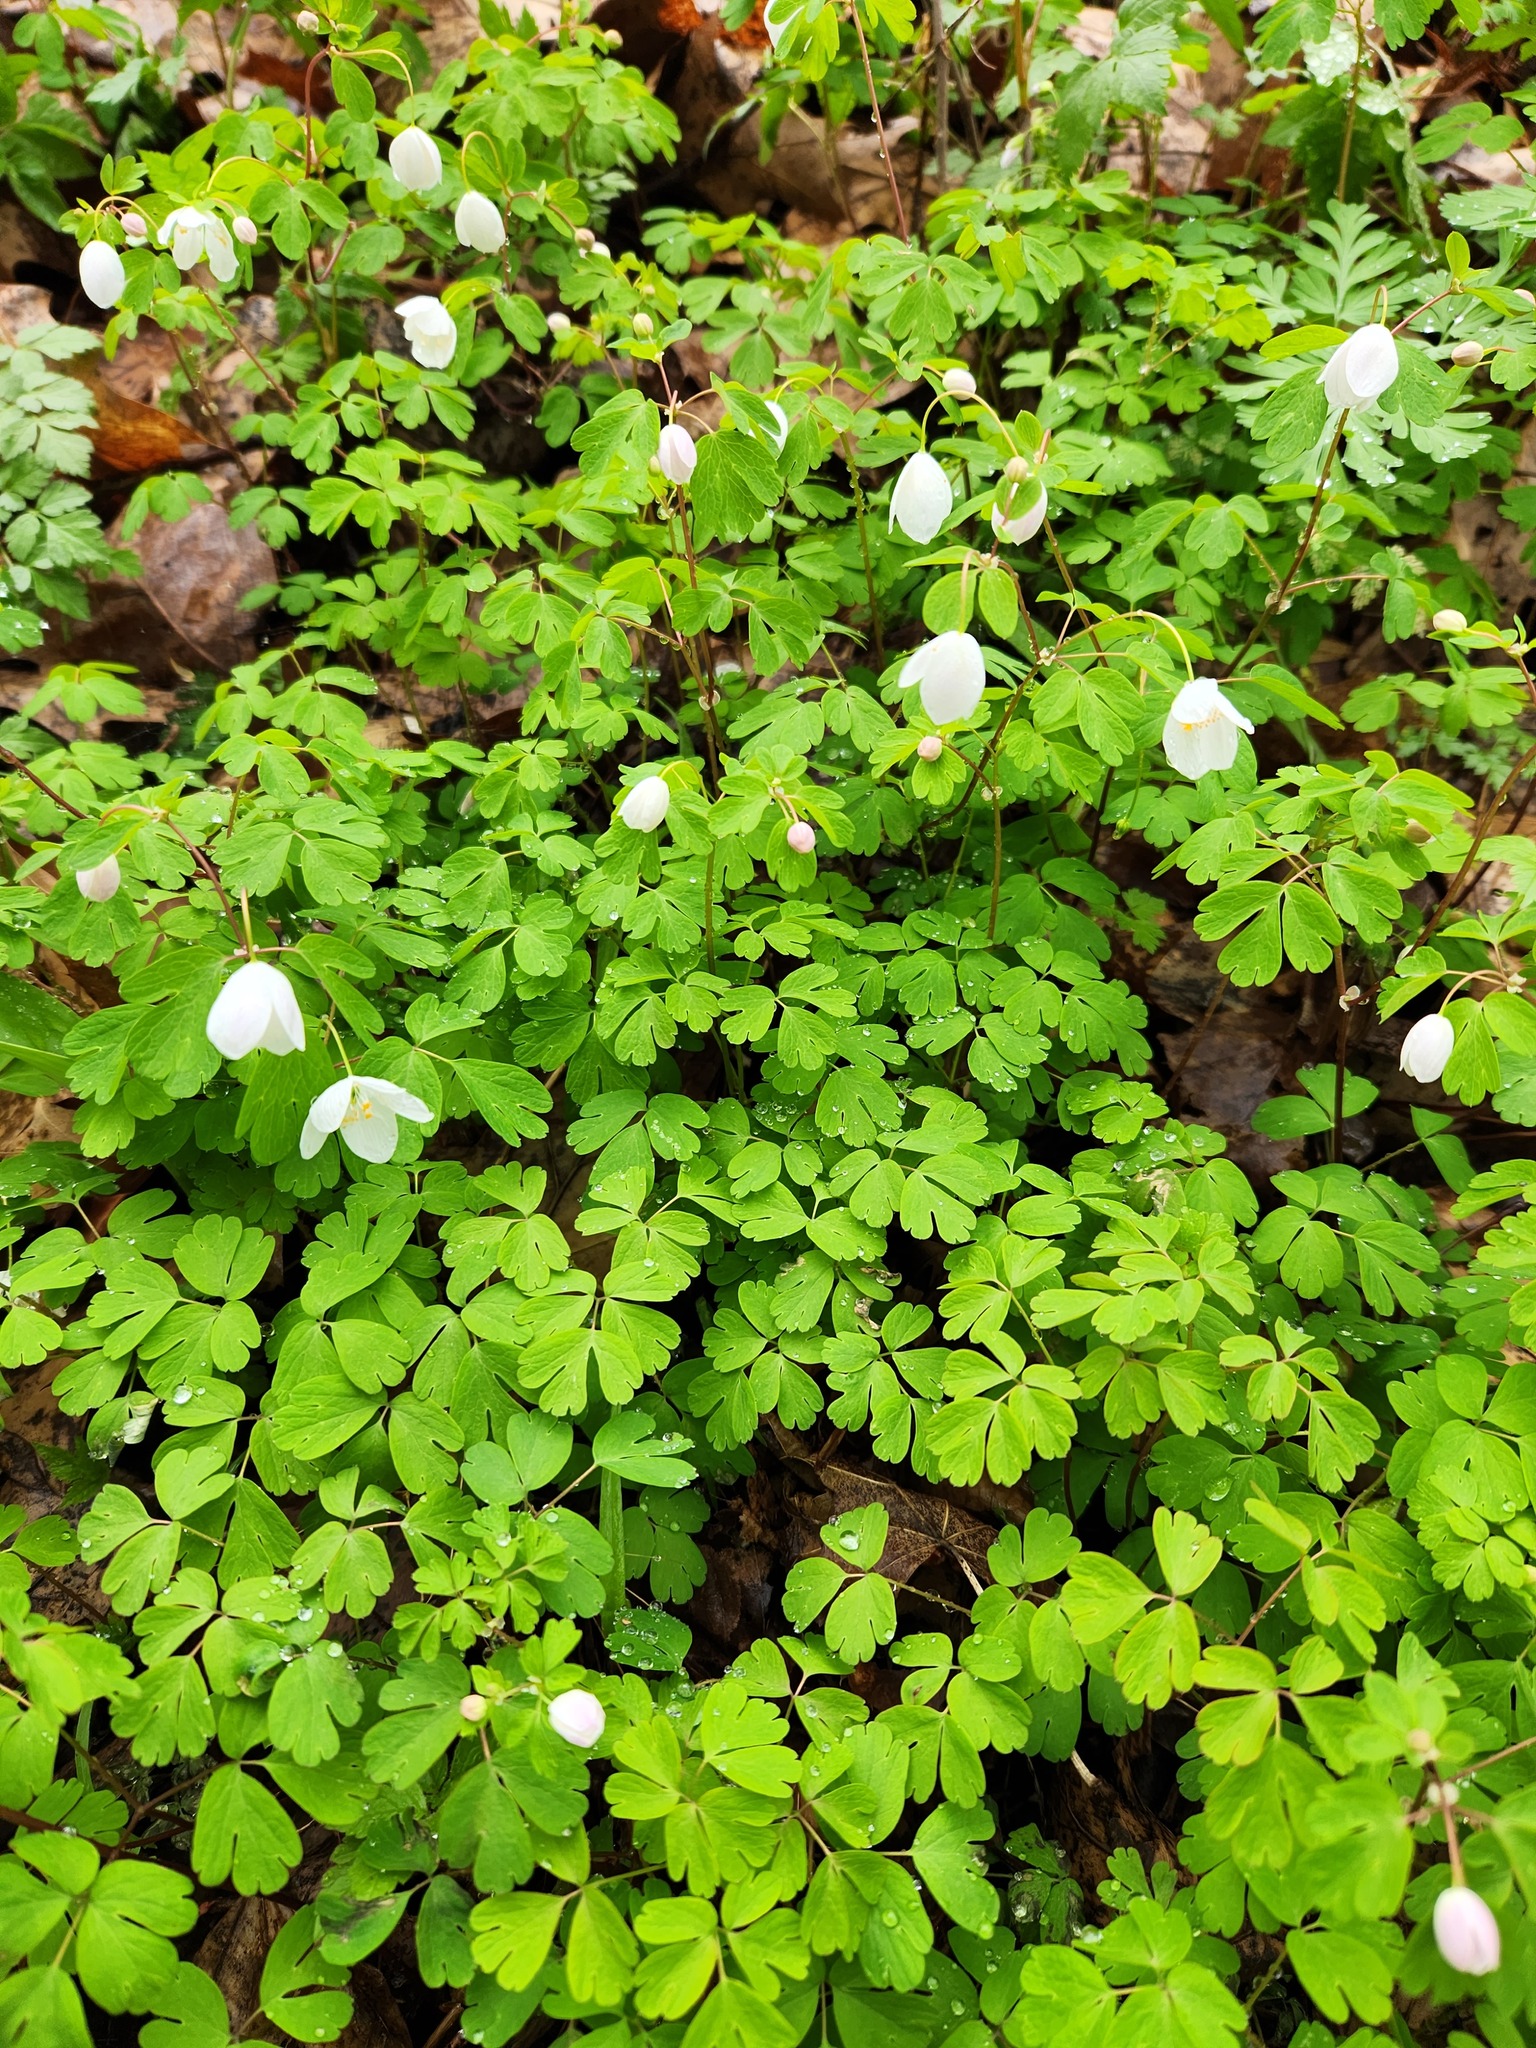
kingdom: Plantae
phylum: Tracheophyta
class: Magnoliopsida
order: Ranunculales
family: Ranunculaceae
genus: Enemion
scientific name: Enemion biternatum
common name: Eastern false rue-anemone
